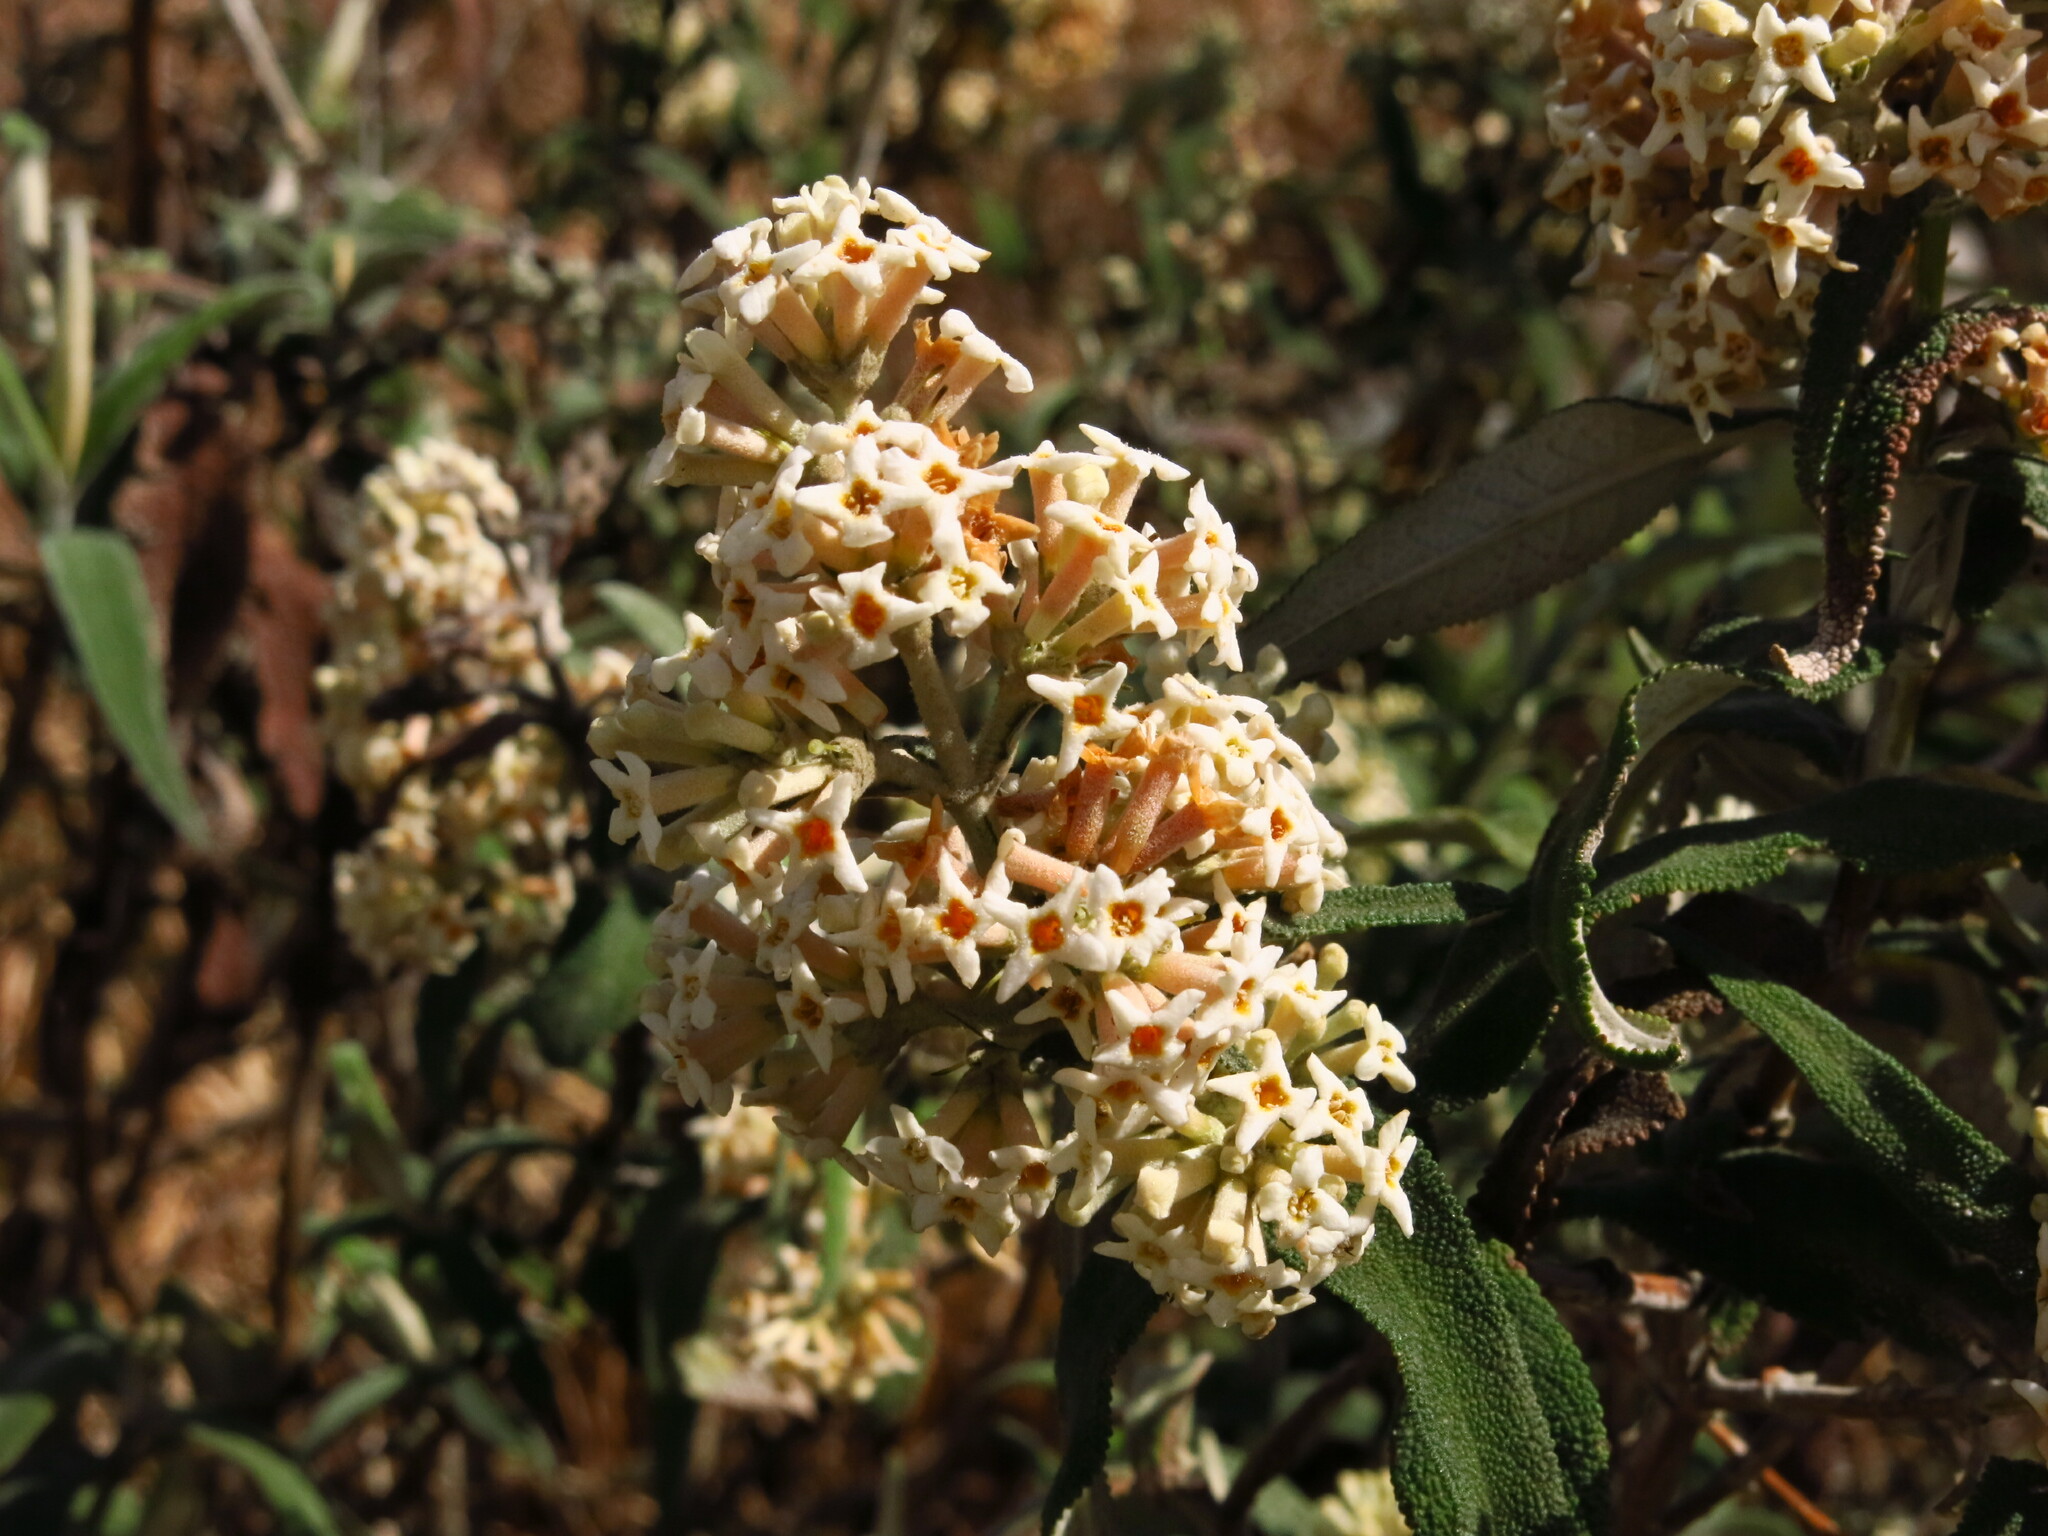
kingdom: Plantae
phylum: Tracheophyta
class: Magnoliopsida
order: Lamiales
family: Scrophulariaceae
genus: Buddleja
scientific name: Buddleja salviifolia
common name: Sagewood
